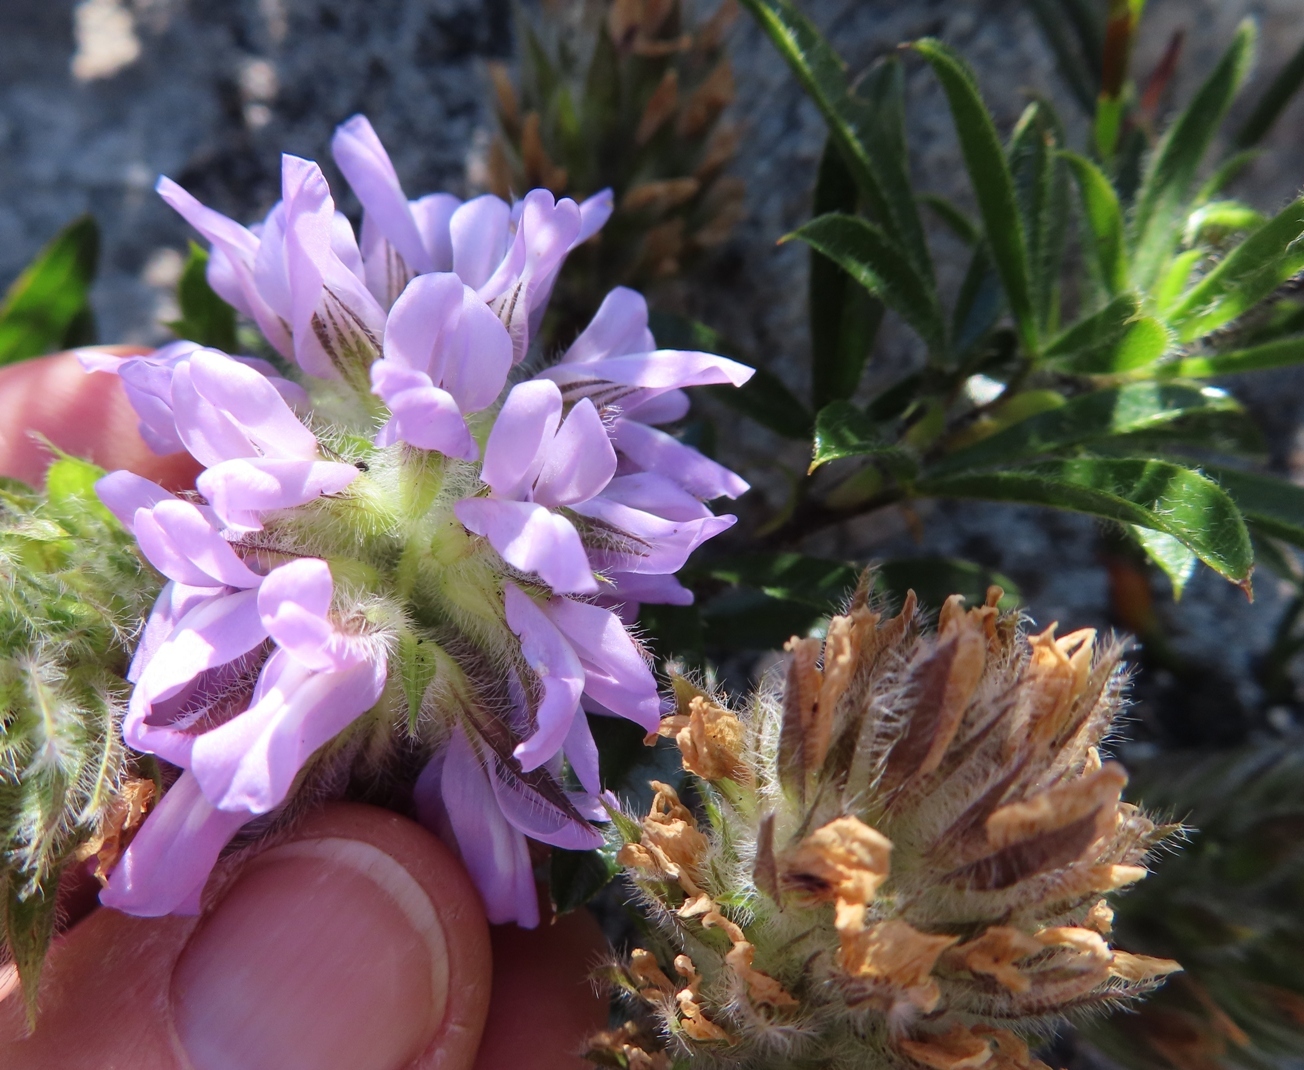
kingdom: Plantae
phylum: Tracheophyta
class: Magnoliopsida
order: Fabales
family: Fabaceae
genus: Psoralea
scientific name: Psoralea zeyheri
